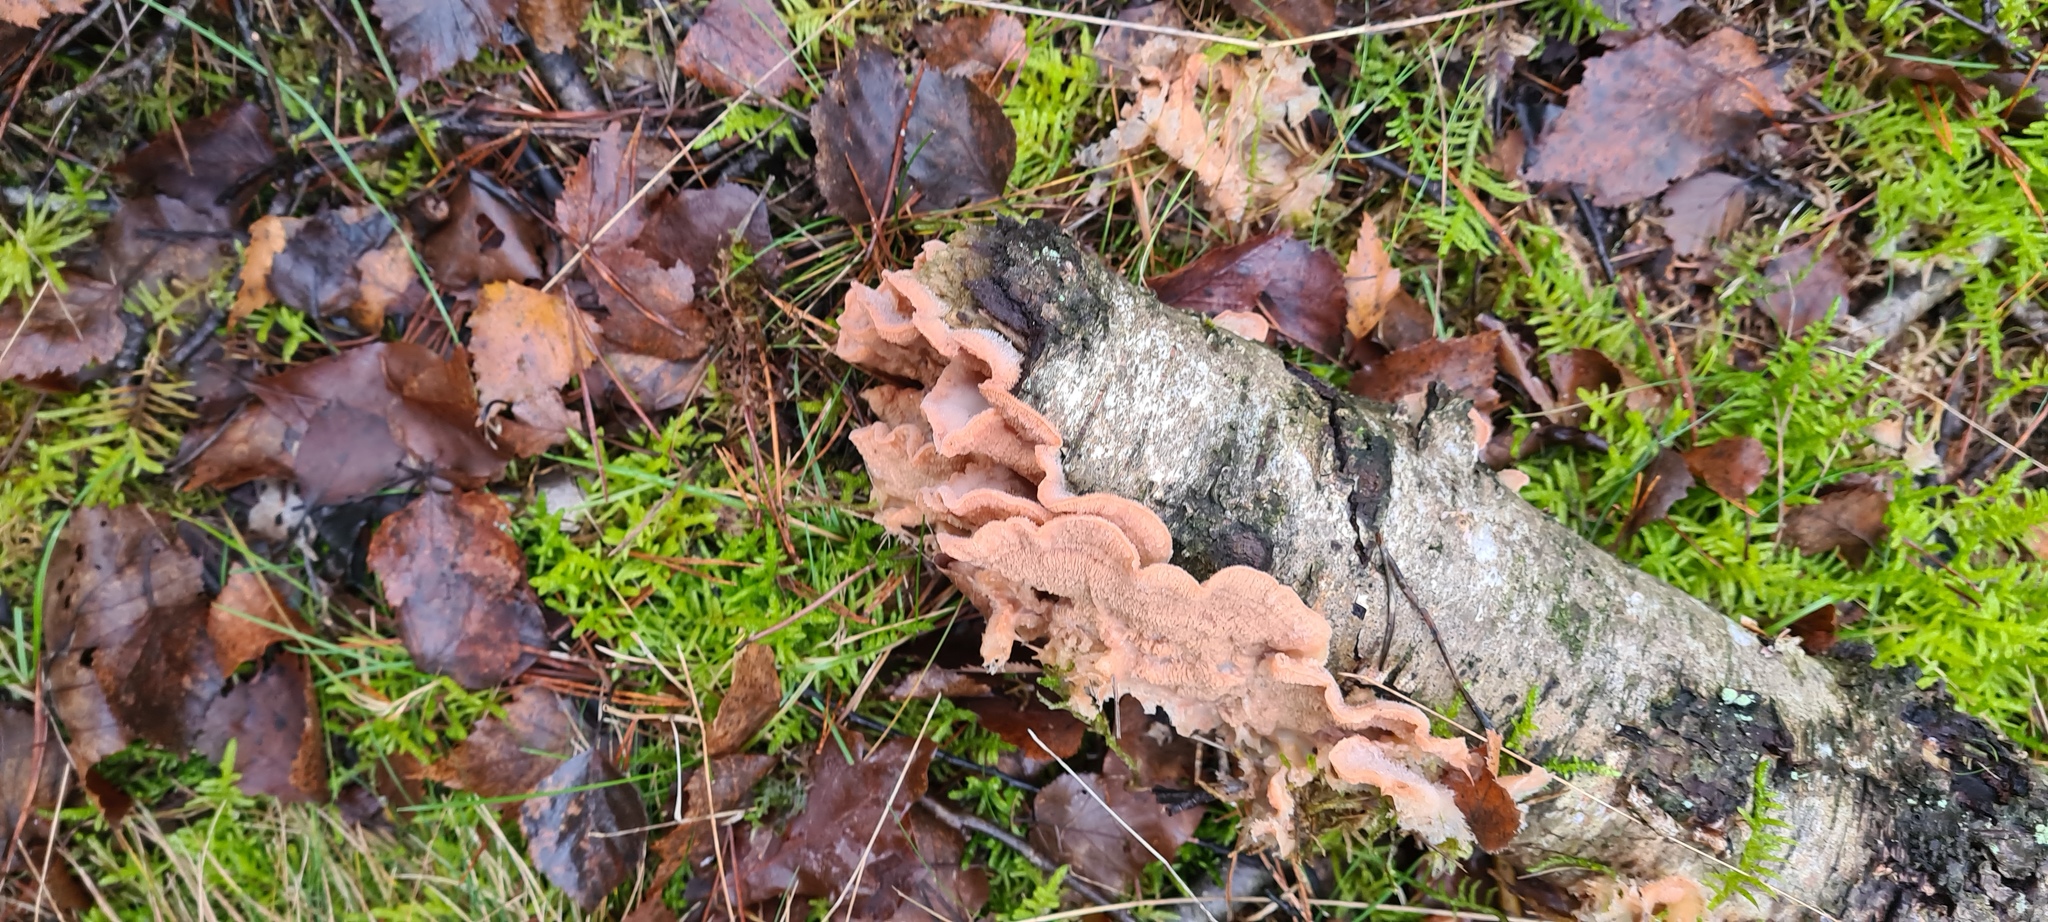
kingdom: Fungi
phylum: Basidiomycota
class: Agaricomycetes
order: Polyporales
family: Meruliaceae
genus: Phlebia
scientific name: Phlebia tremellosa
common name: Jelly rot
